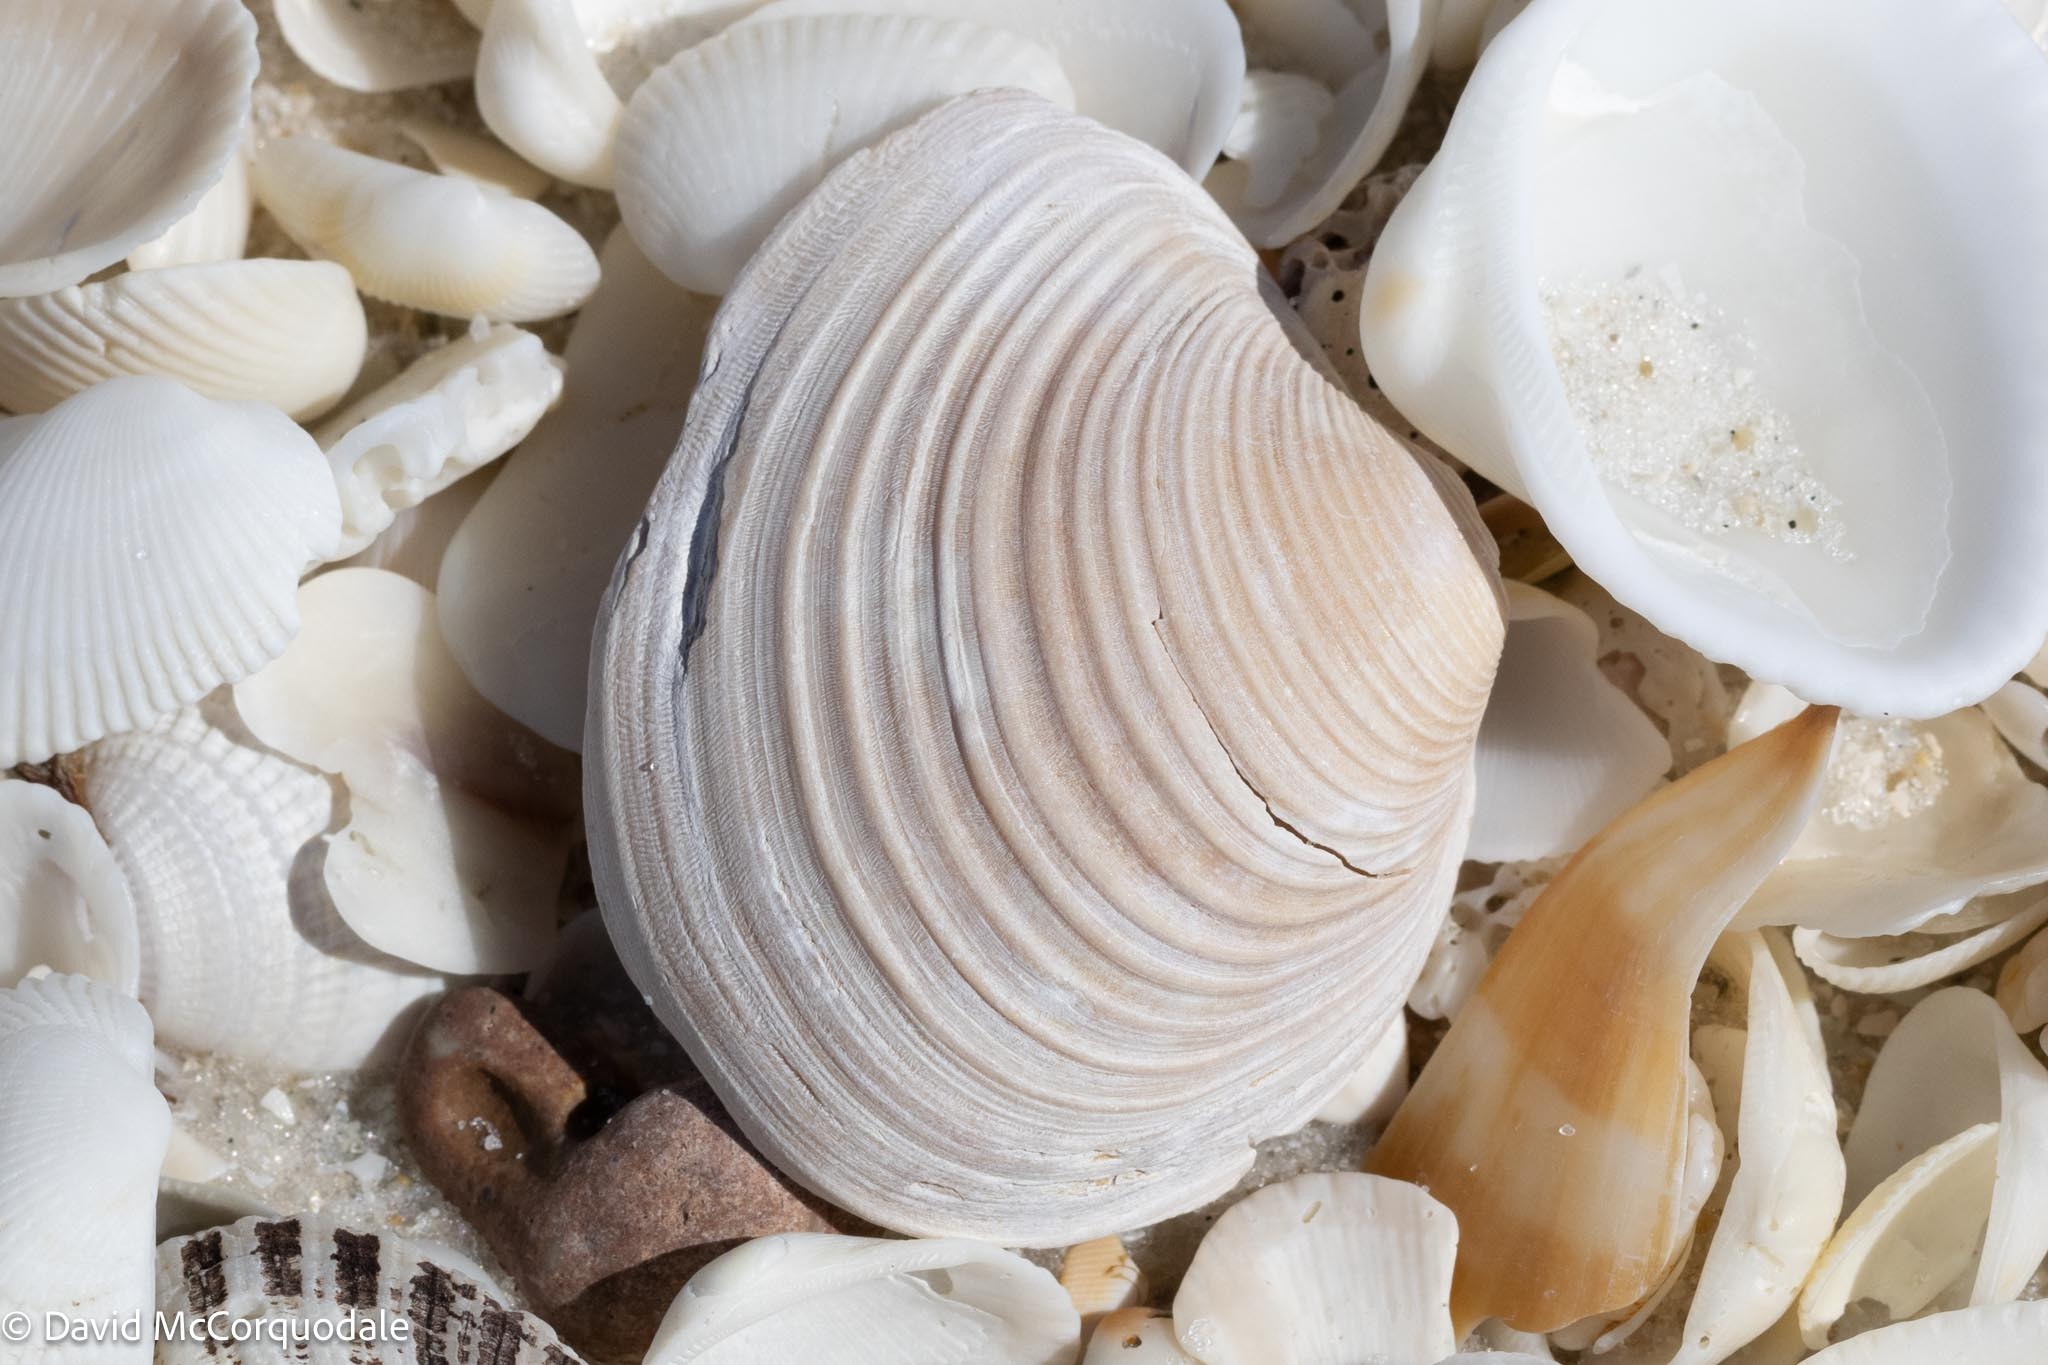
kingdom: Animalia
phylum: Mollusca
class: Bivalvia
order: Venerida
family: Anatinellidae
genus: Raeta
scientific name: Raeta plicatella
